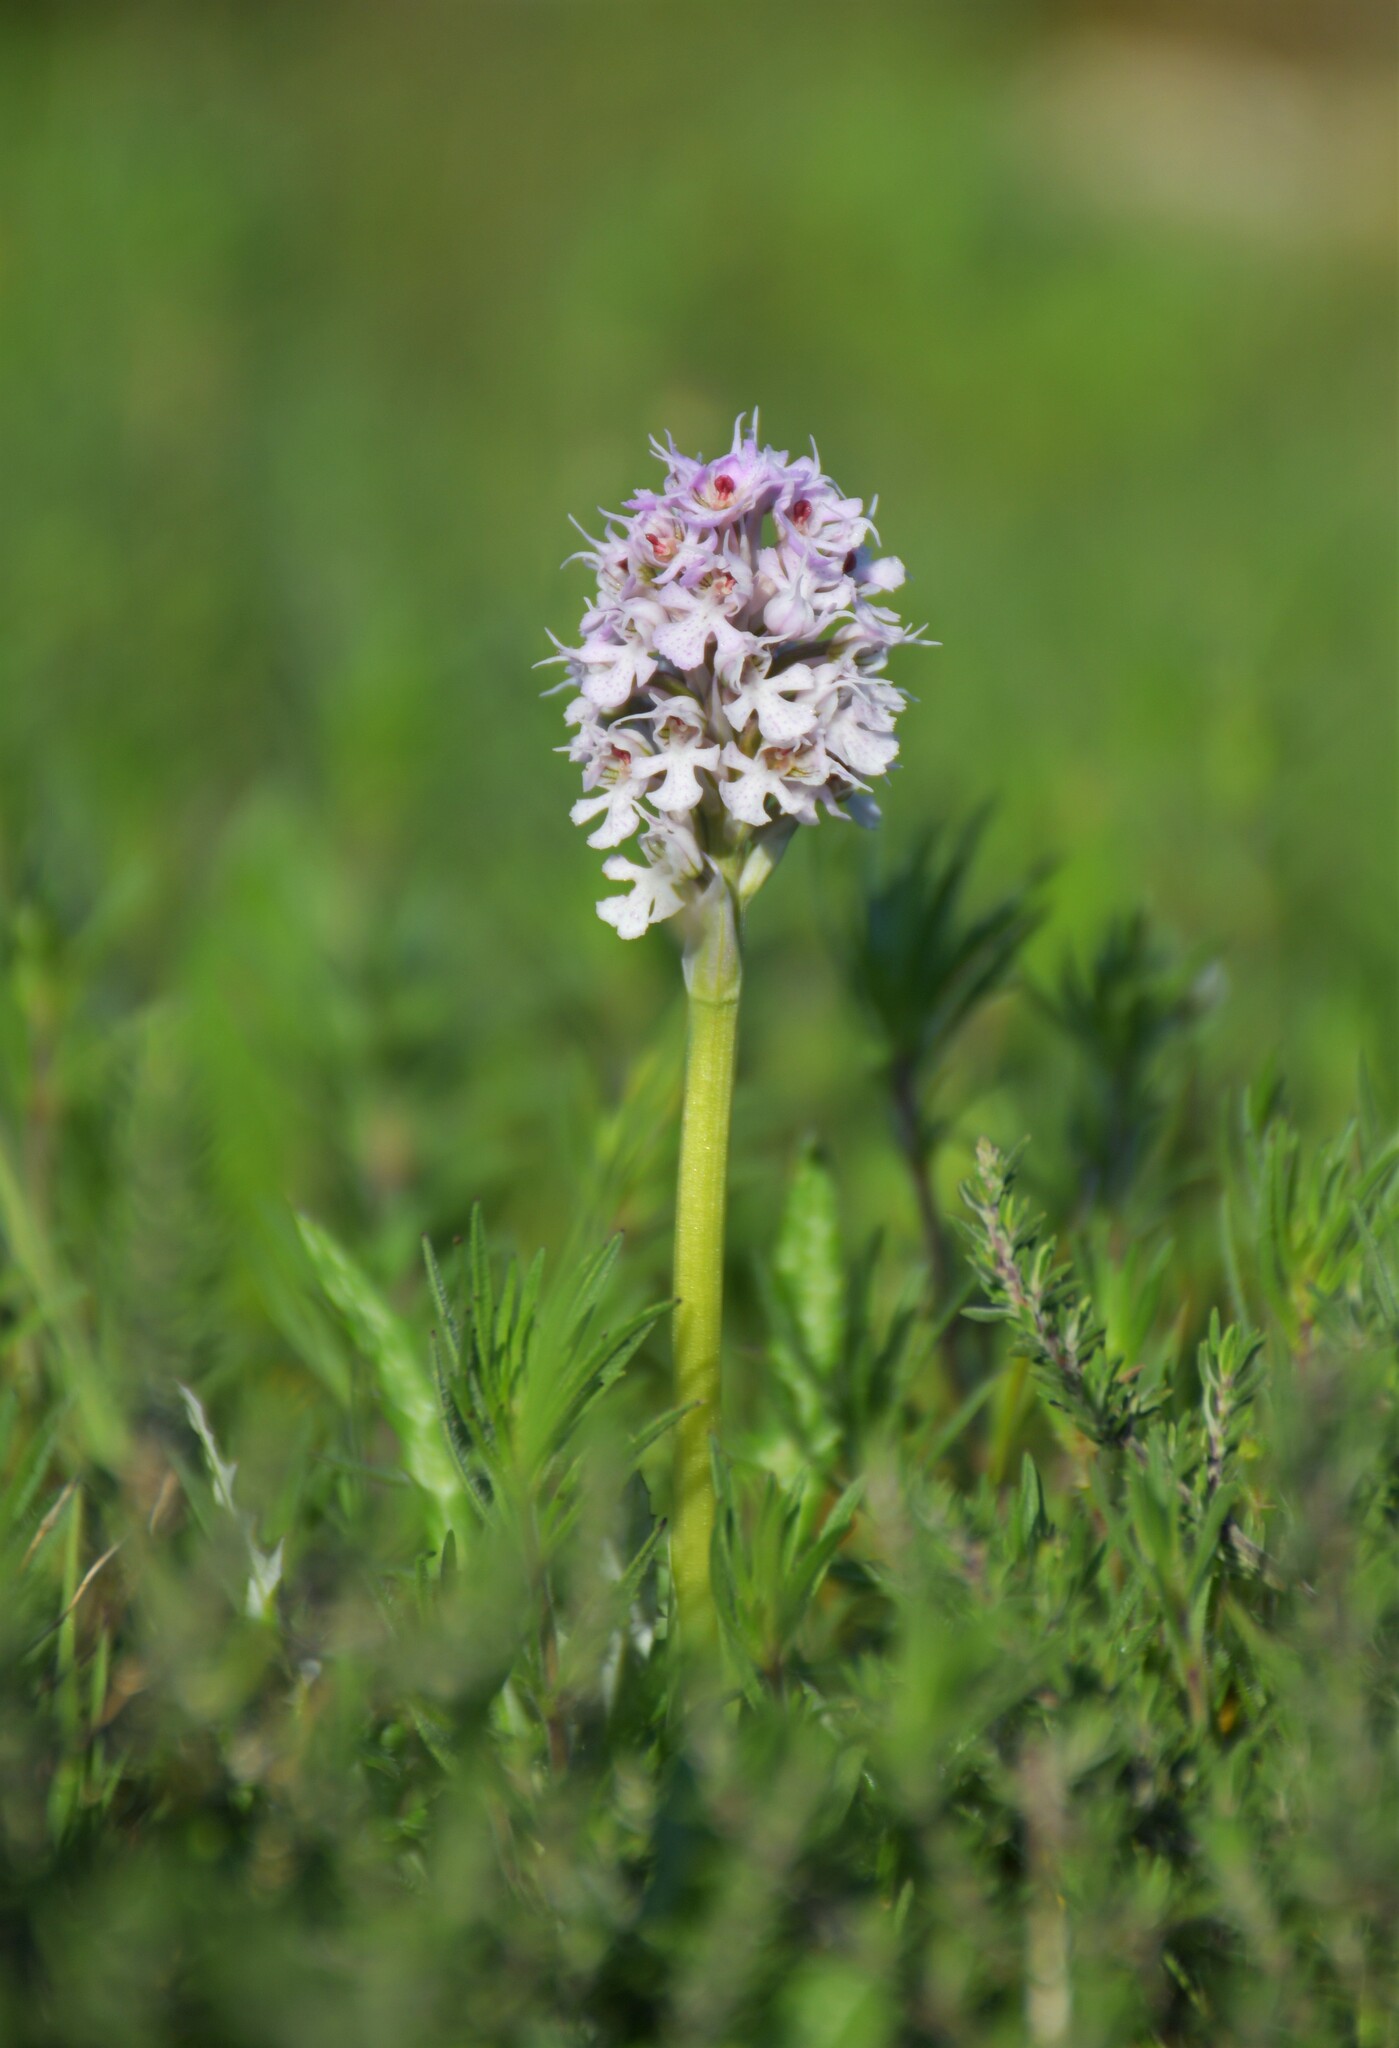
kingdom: Plantae
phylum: Tracheophyta
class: Liliopsida
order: Asparagales
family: Orchidaceae
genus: Neotinea
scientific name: Neotinea conica
